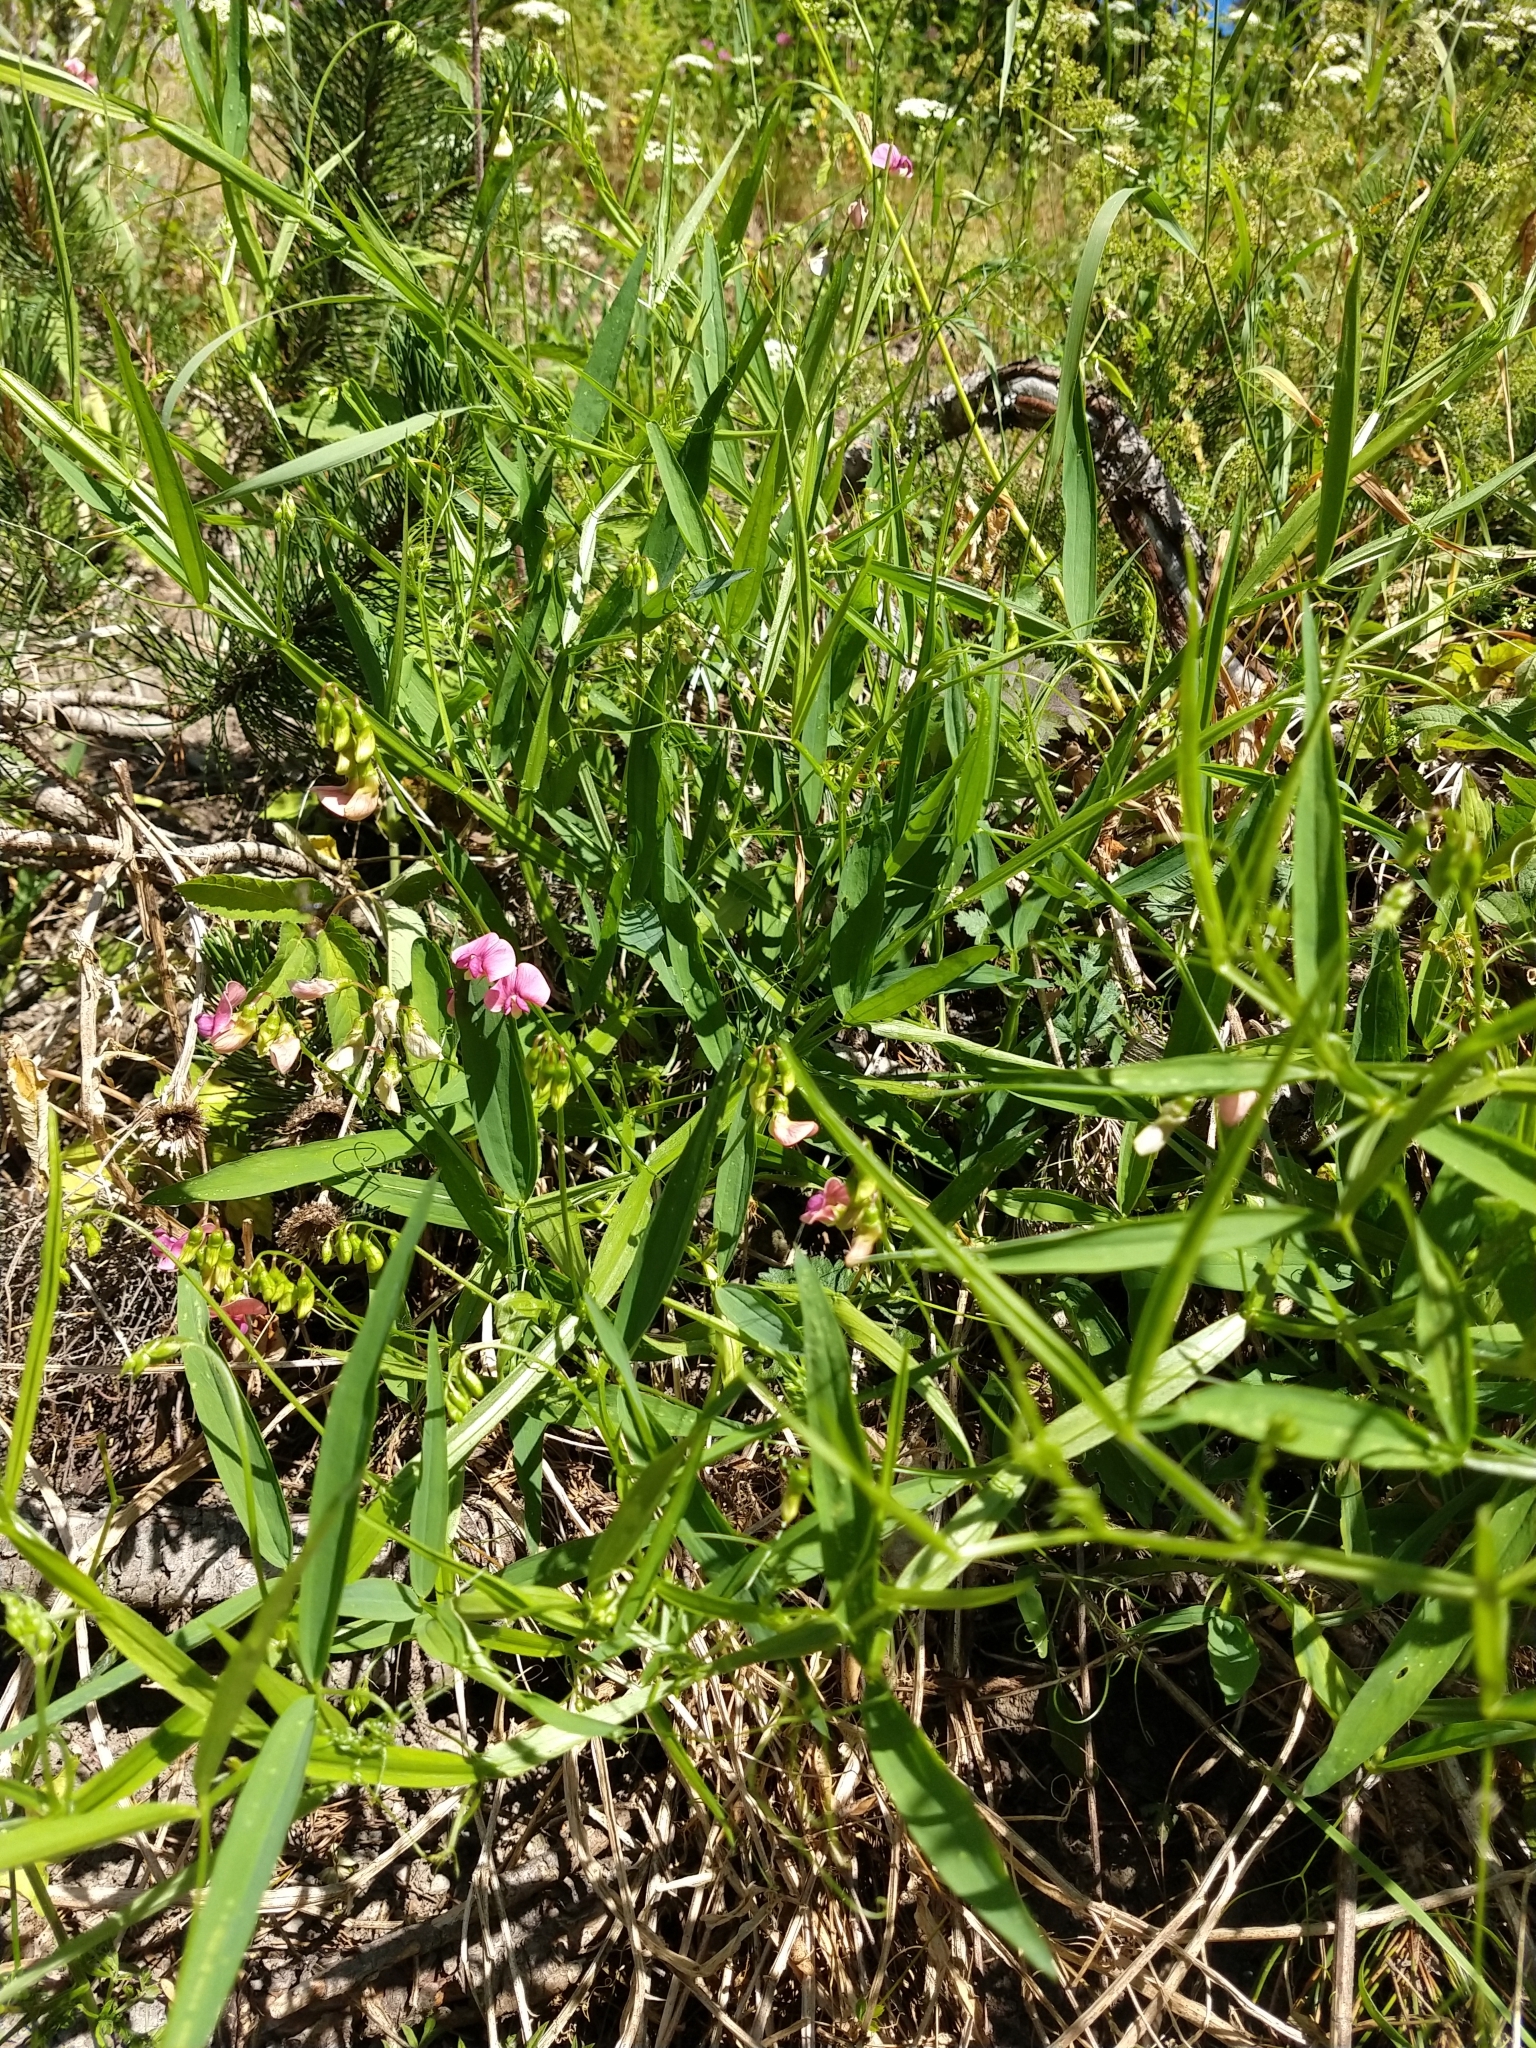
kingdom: Plantae
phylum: Tracheophyta
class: Magnoliopsida
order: Fabales
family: Fabaceae
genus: Lathyrus
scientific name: Lathyrus sylvestris
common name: Flat pea
